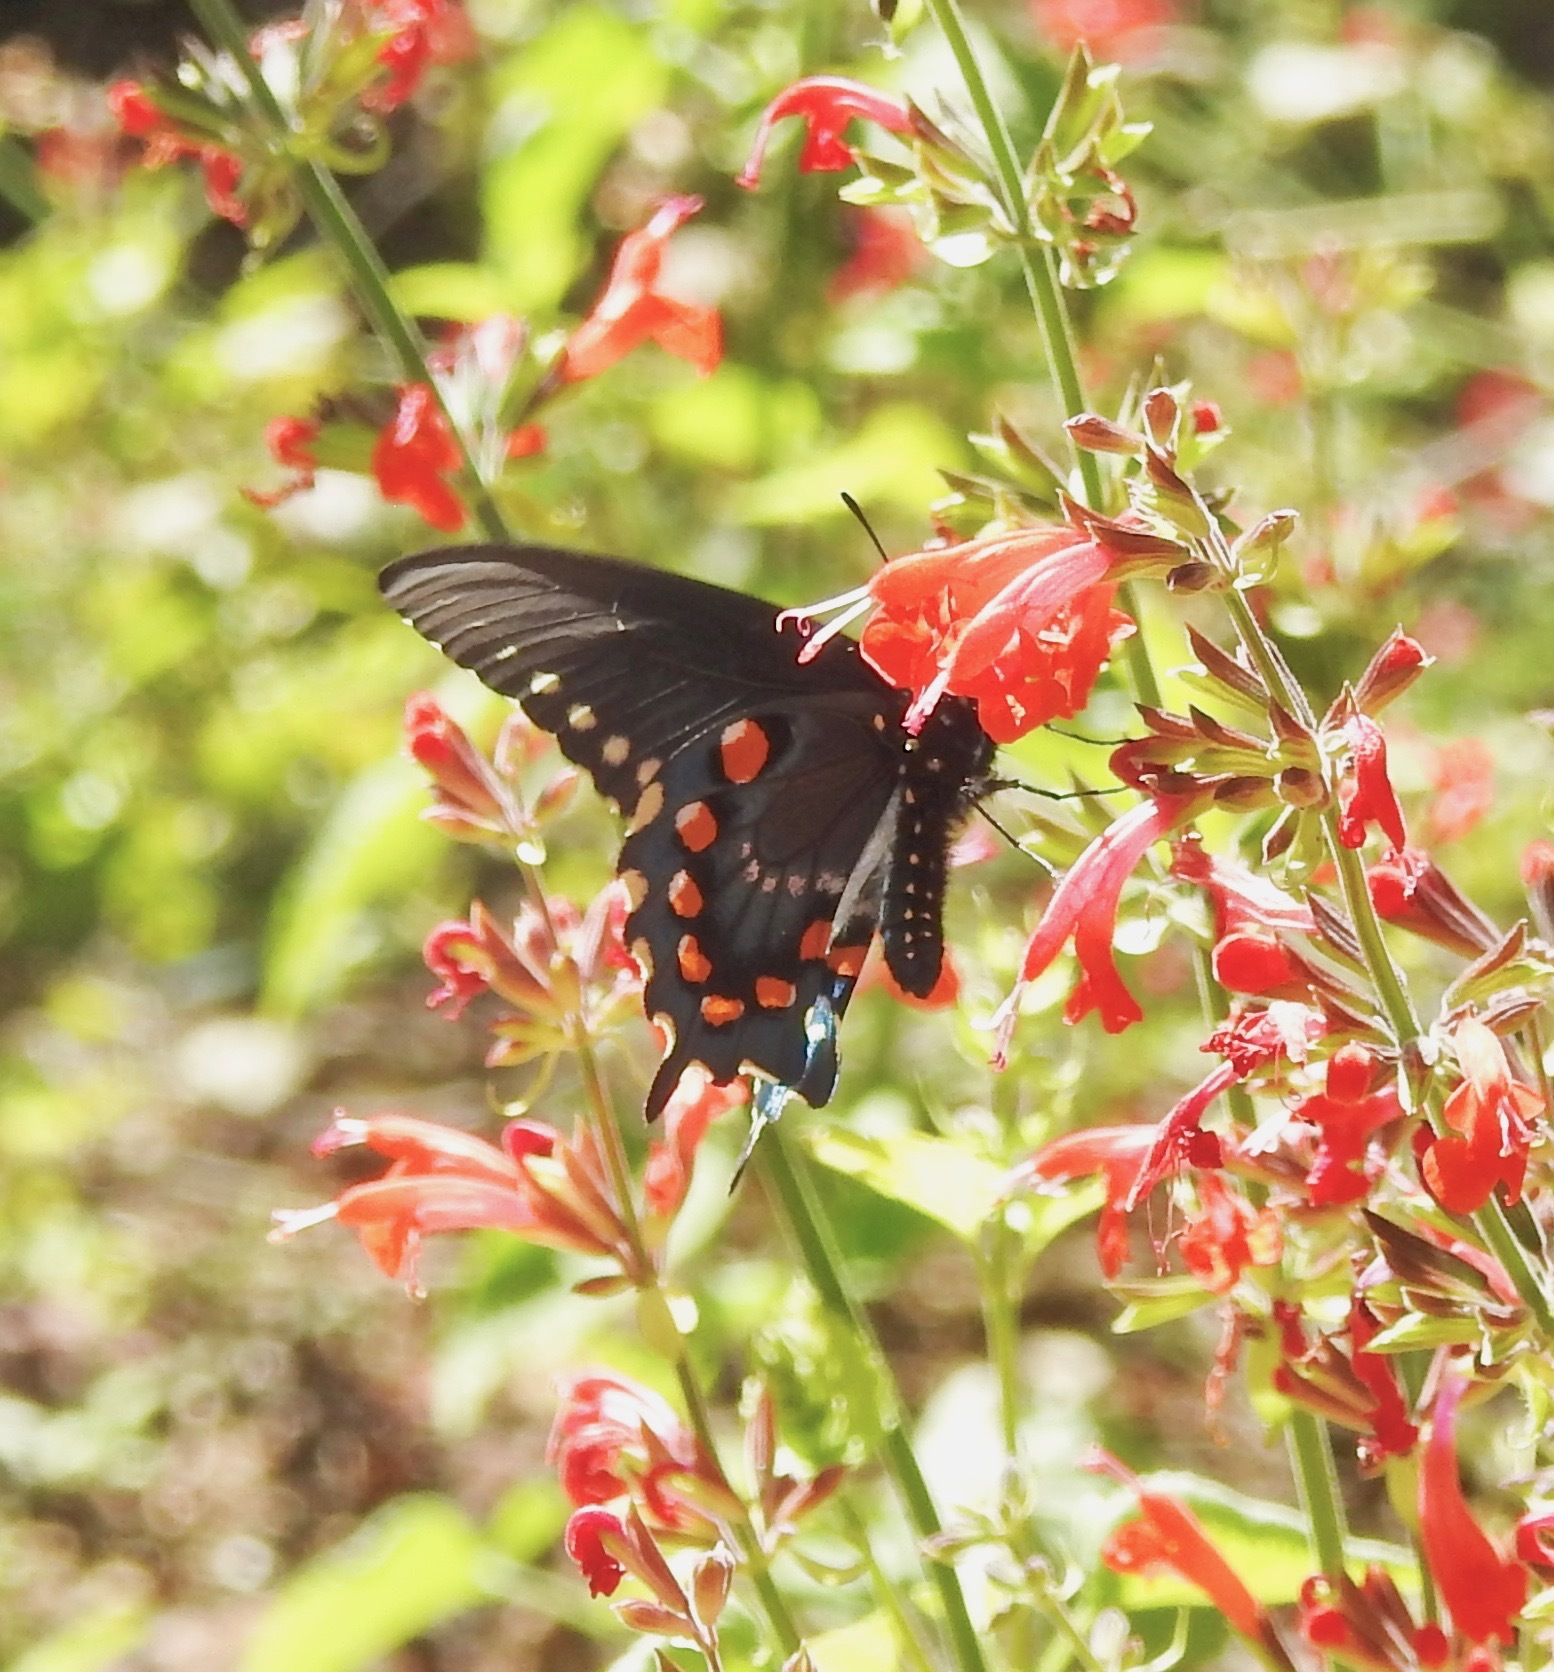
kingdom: Animalia
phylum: Arthropoda
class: Insecta
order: Lepidoptera
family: Papilionidae
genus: Battus
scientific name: Battus philenor
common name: Pipevine swallowtail
